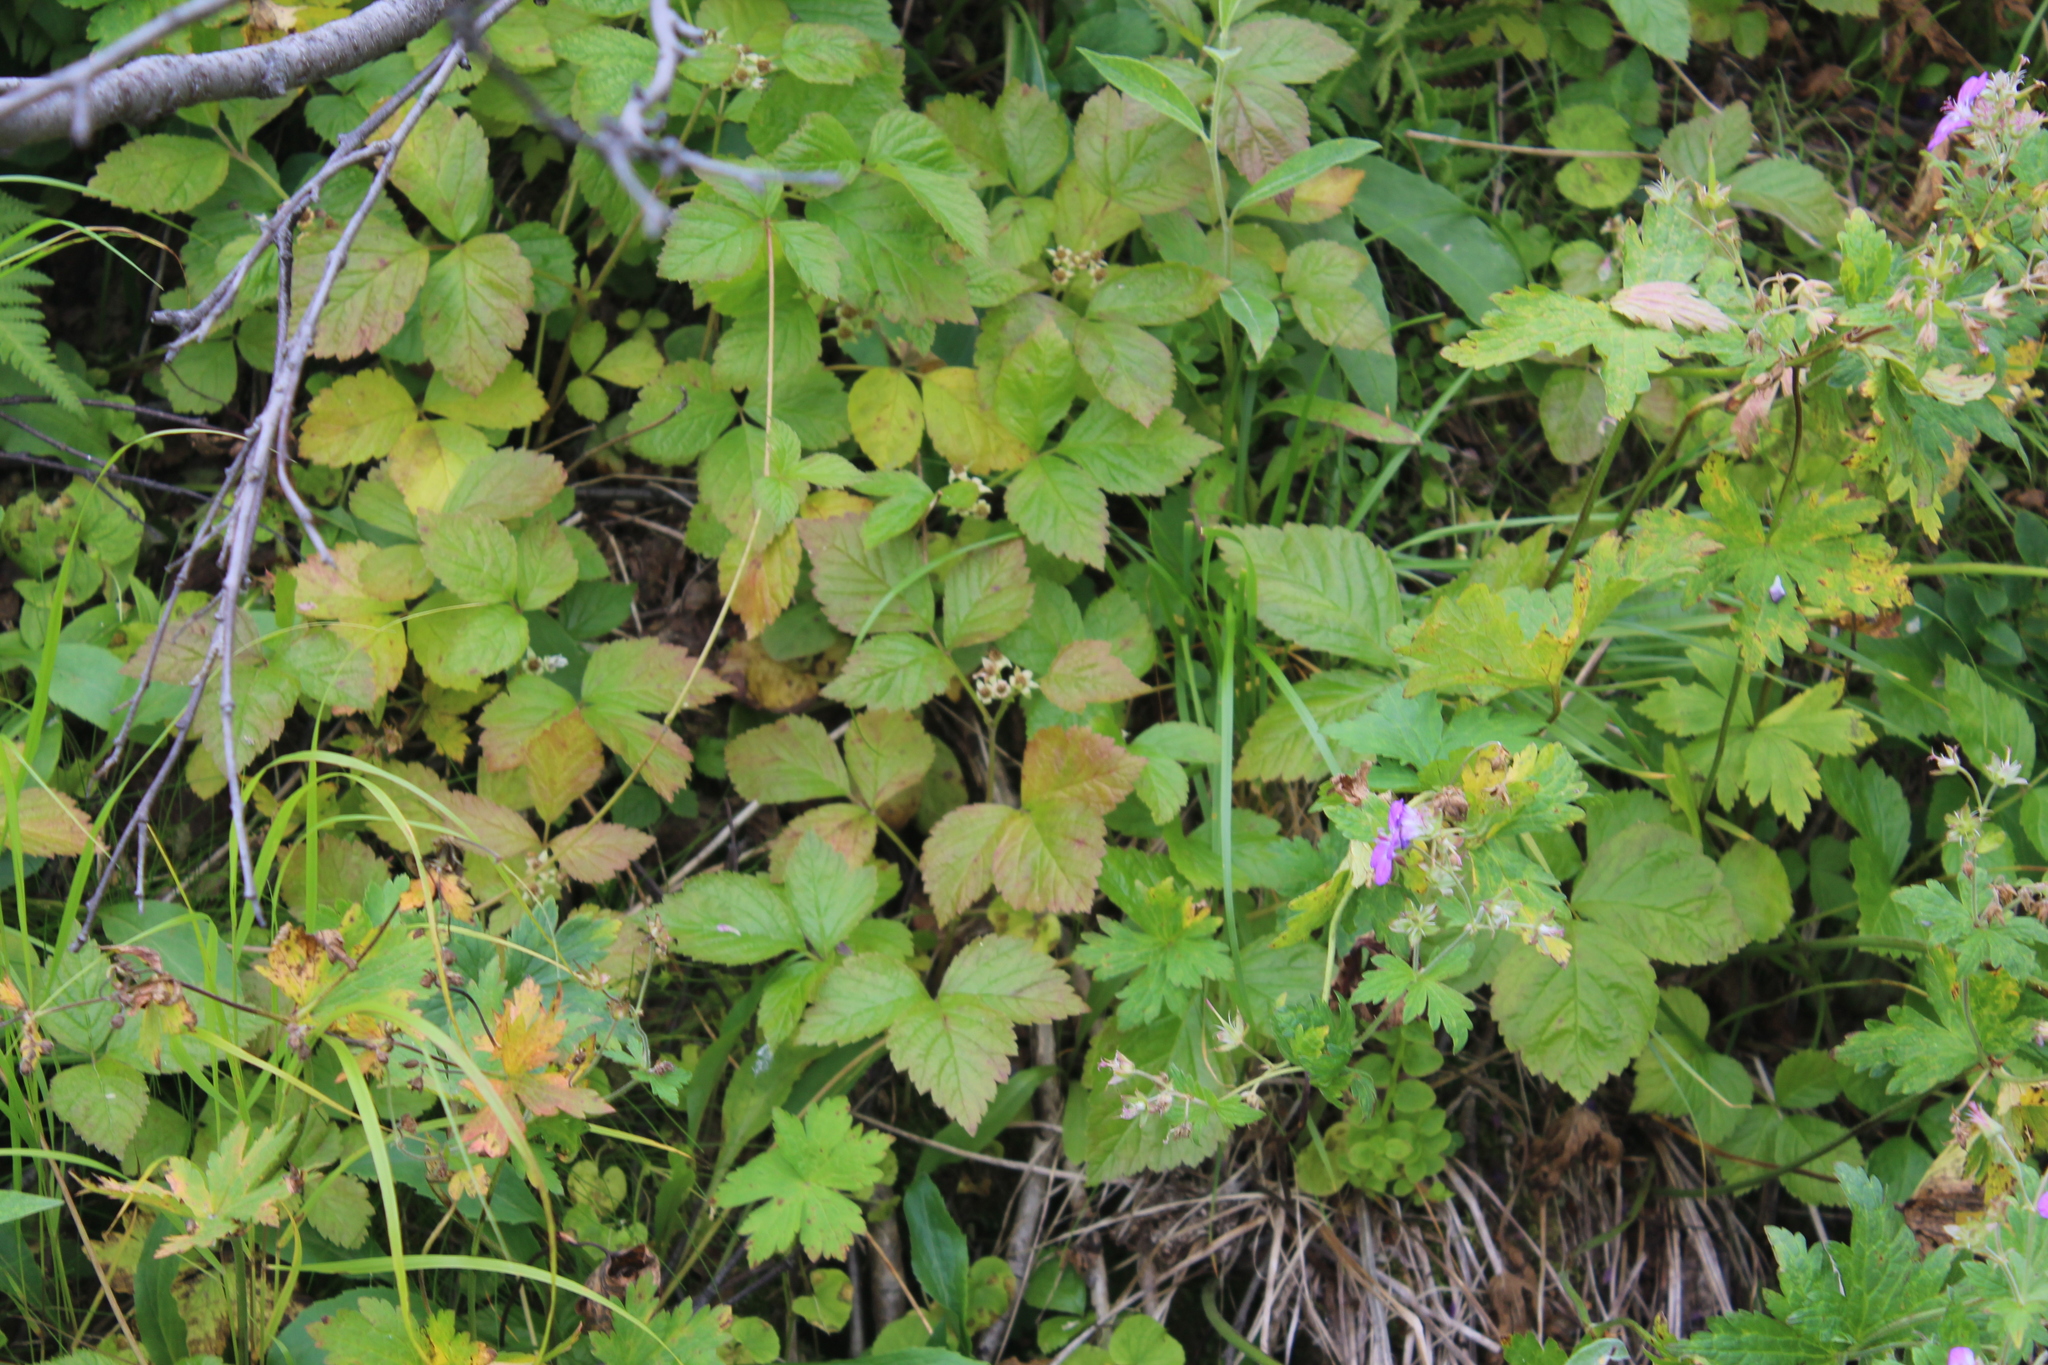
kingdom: Plantae
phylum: Tracheophyta
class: Magnoliopsida
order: Rosales
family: Rosaceae
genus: Rubus
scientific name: Rubus saxatilis
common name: Stone bramble
